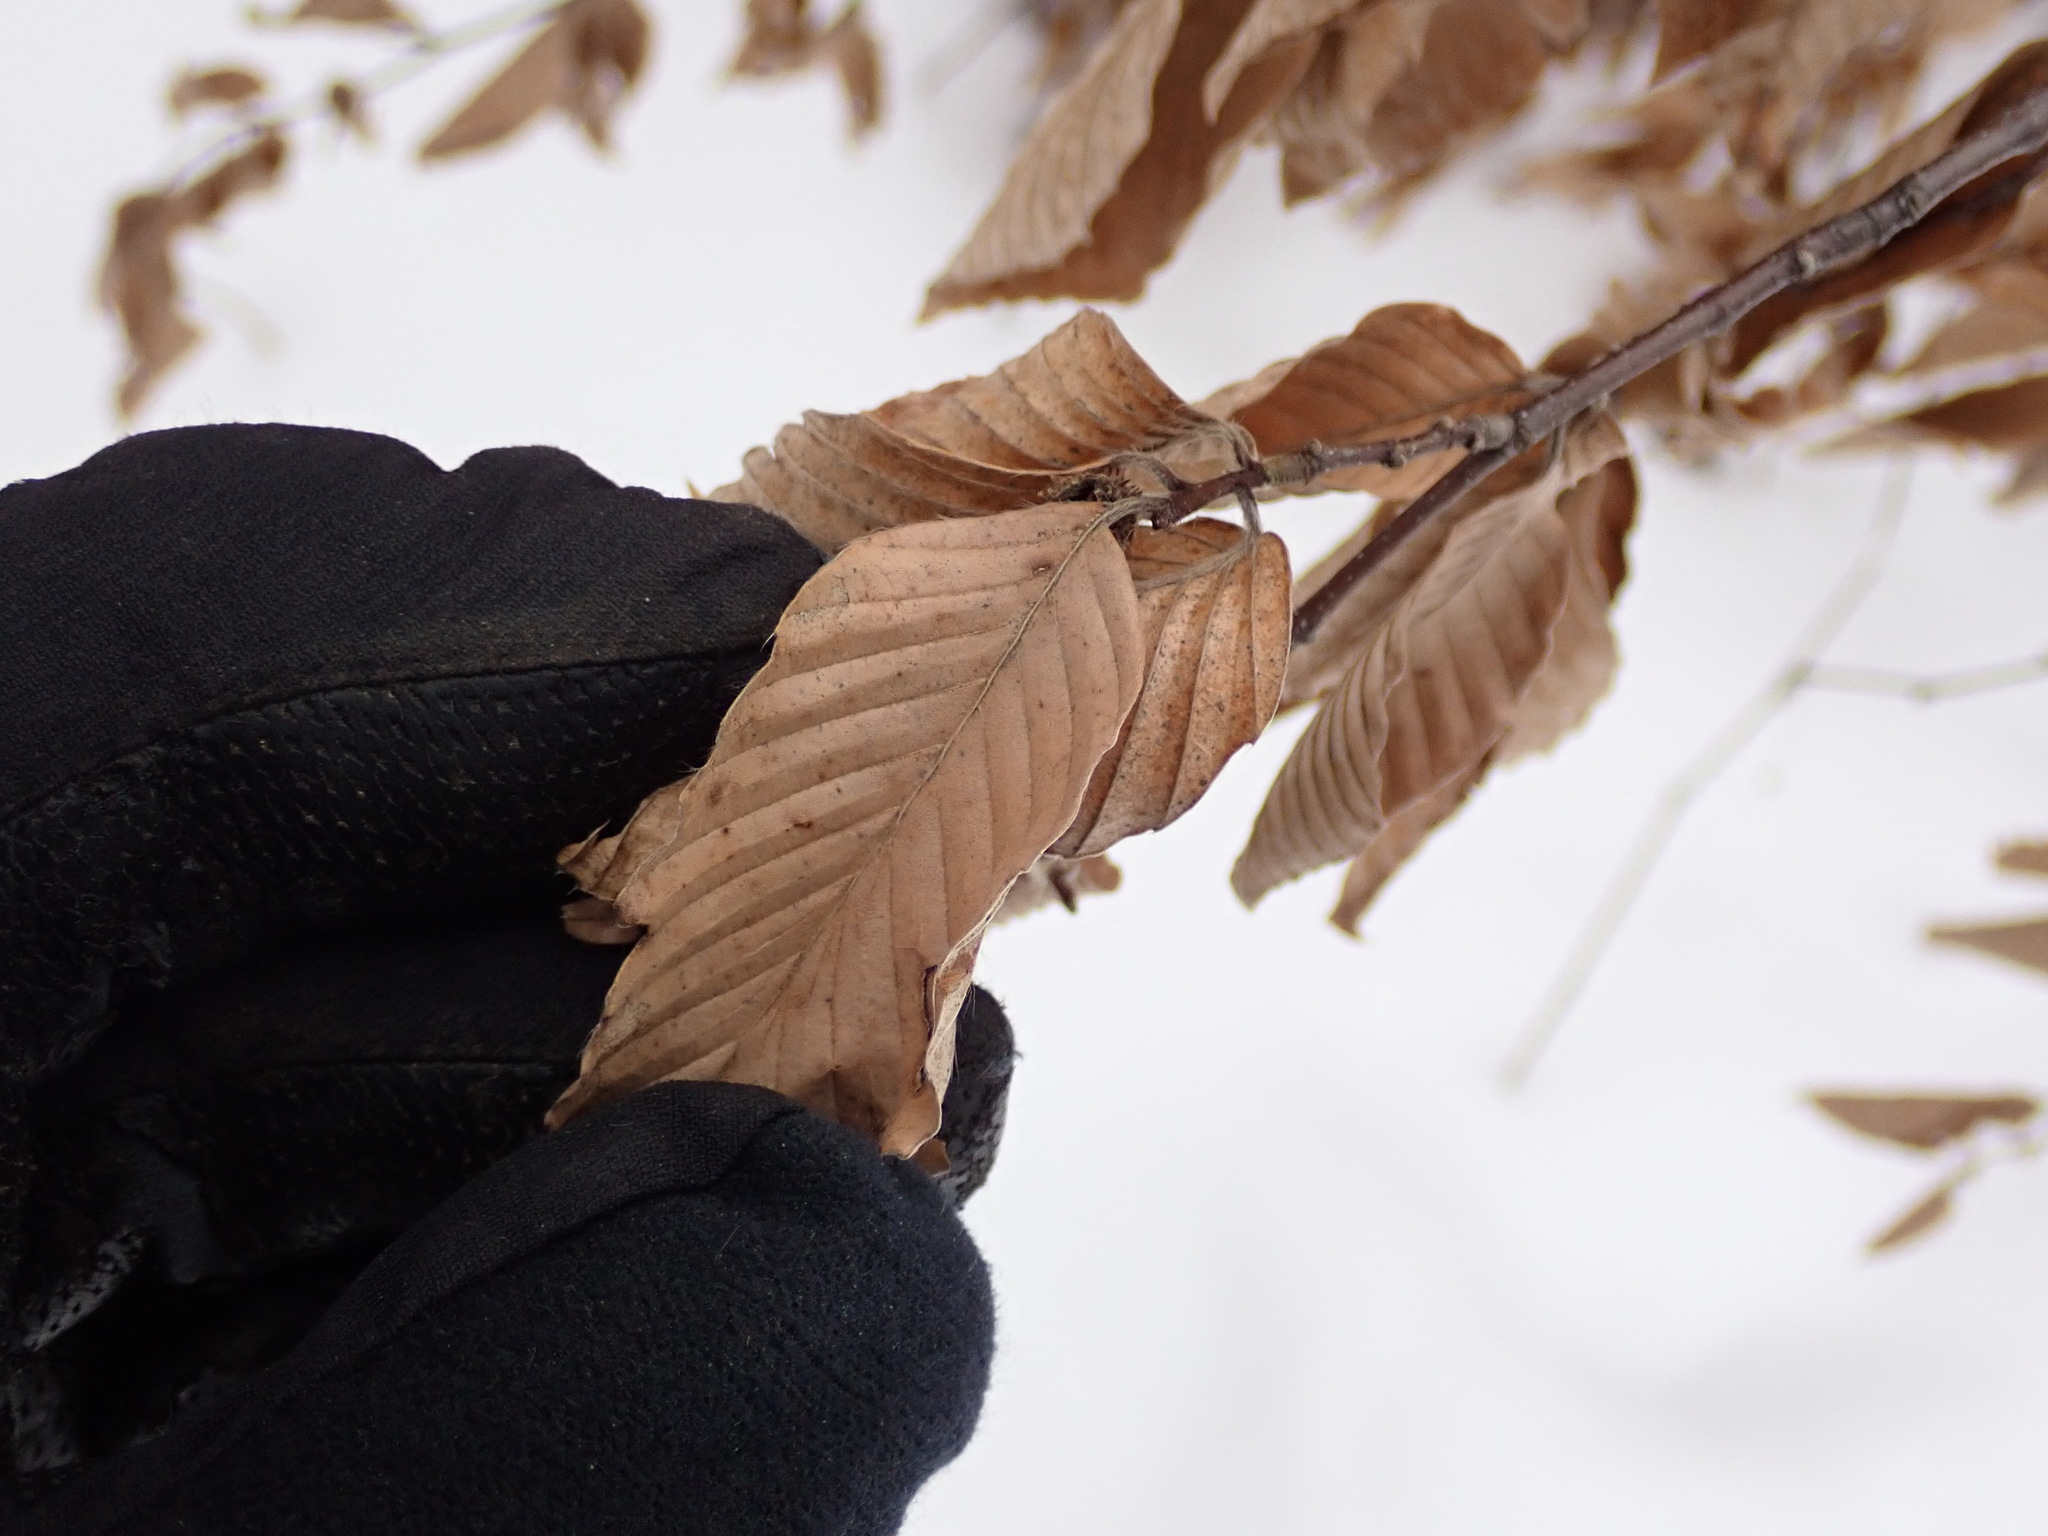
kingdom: Plantae
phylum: Tracheophyta
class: Magnoliopsida
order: Fagales
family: Fagaceae
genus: Fagus
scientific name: Fagus grandifolia
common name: American beech
